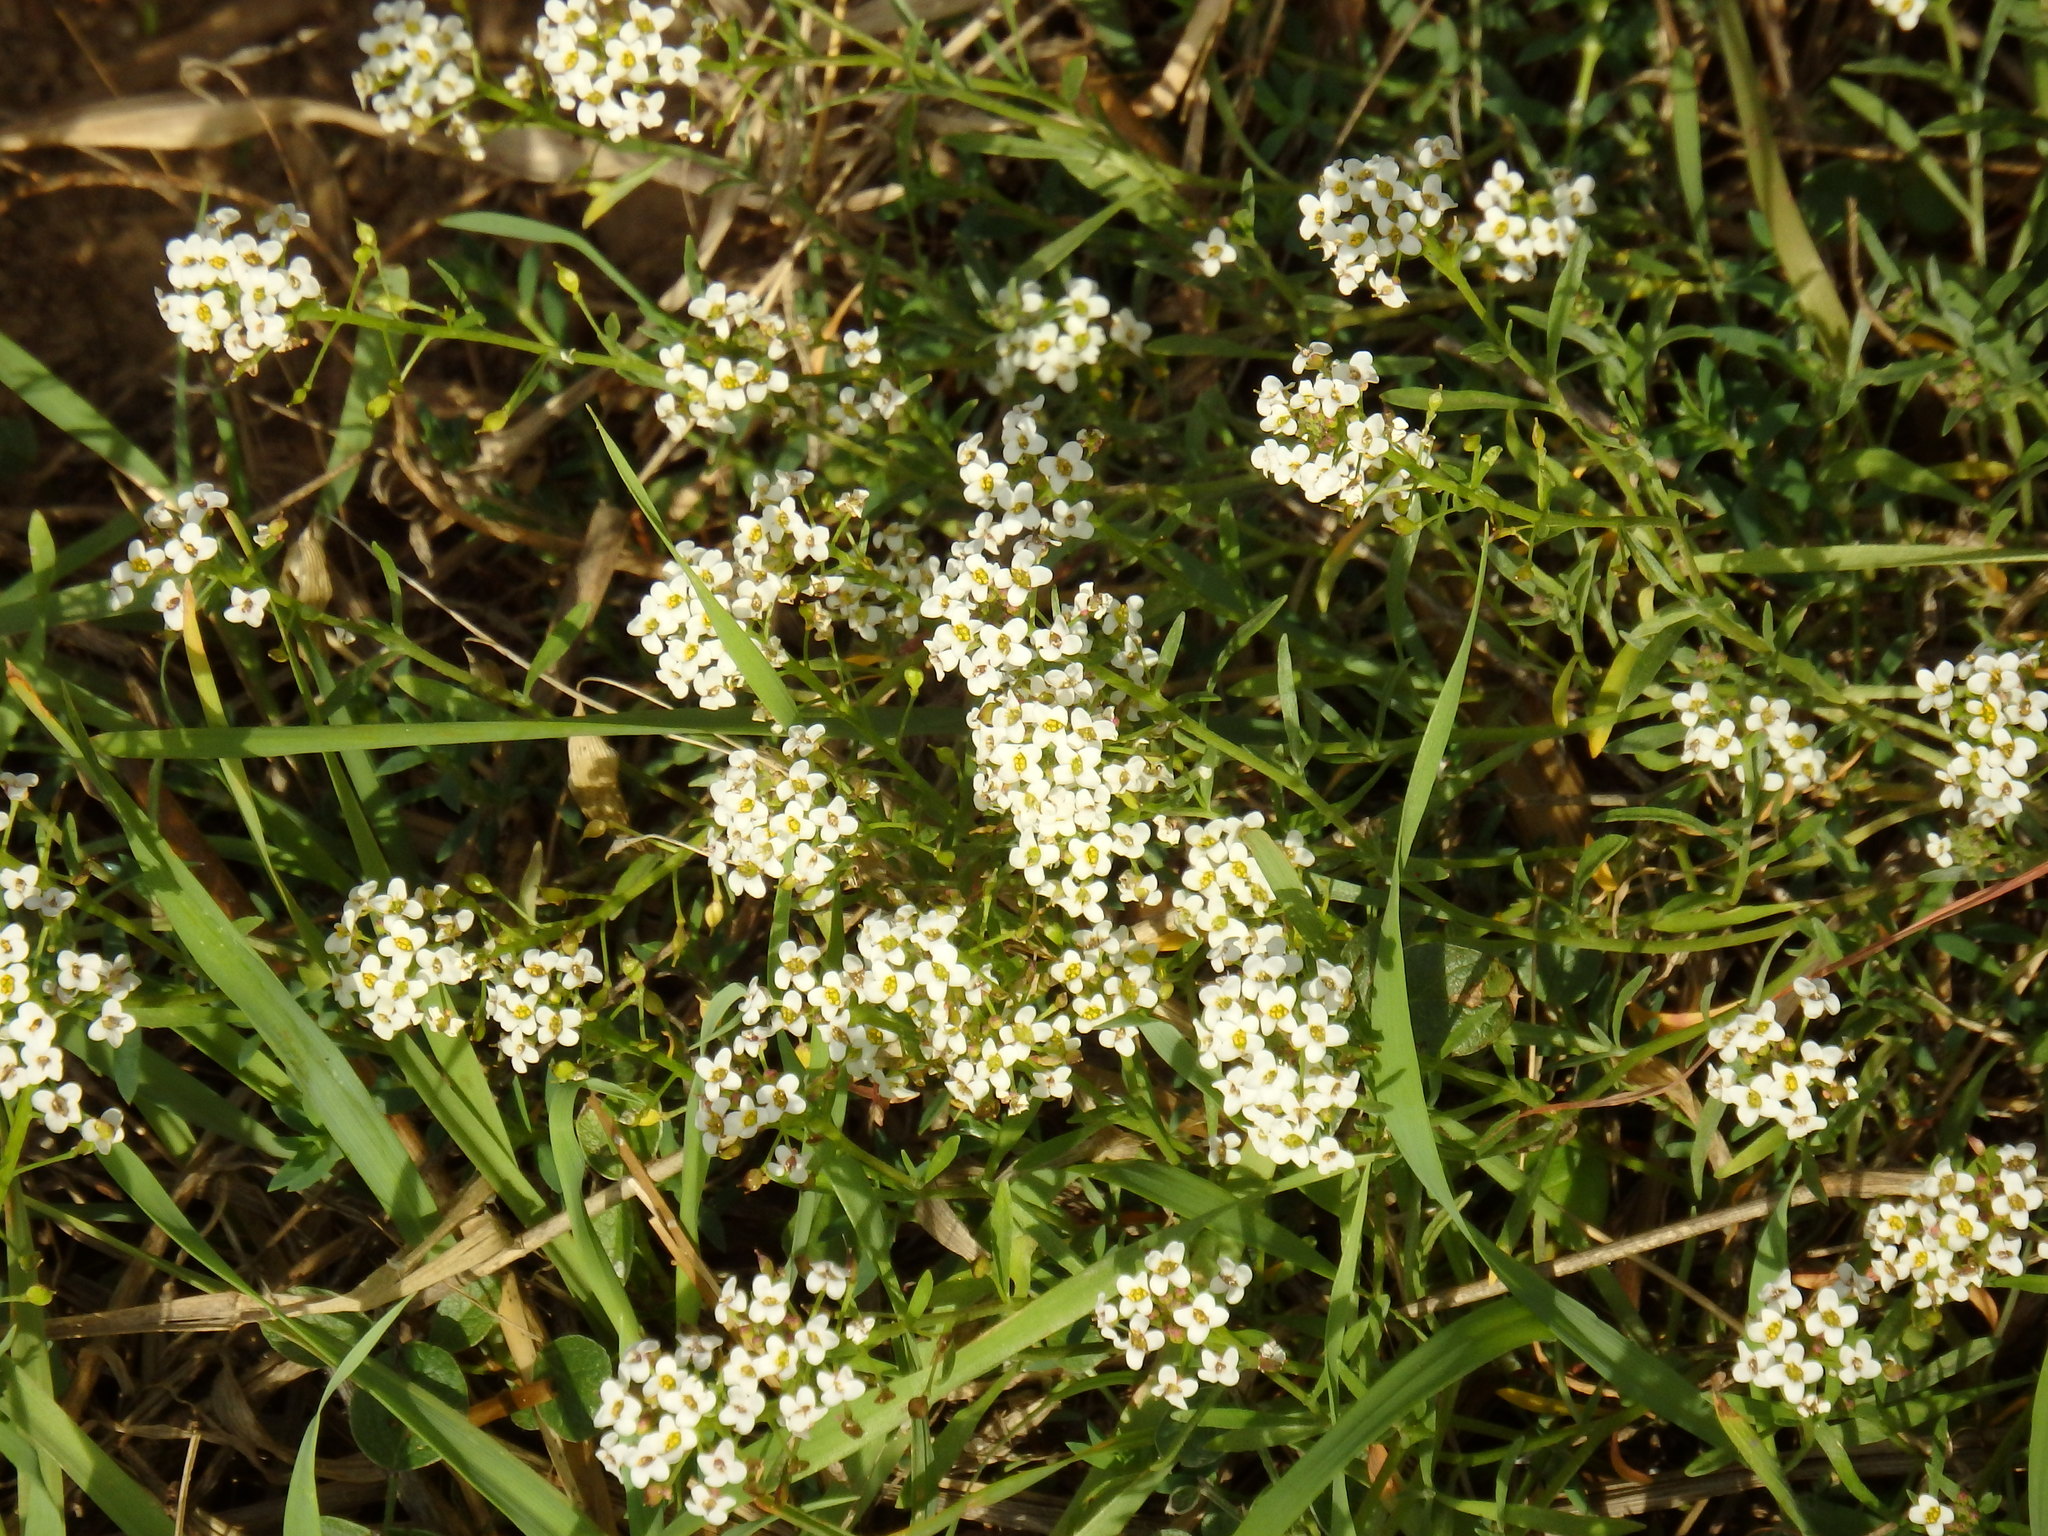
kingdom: Plantae
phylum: Tracheophyta
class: Magnoliopsida
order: Brassicales
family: Brassicaceae
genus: Lobularia
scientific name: Lobularia maritima
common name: Sweet alison
